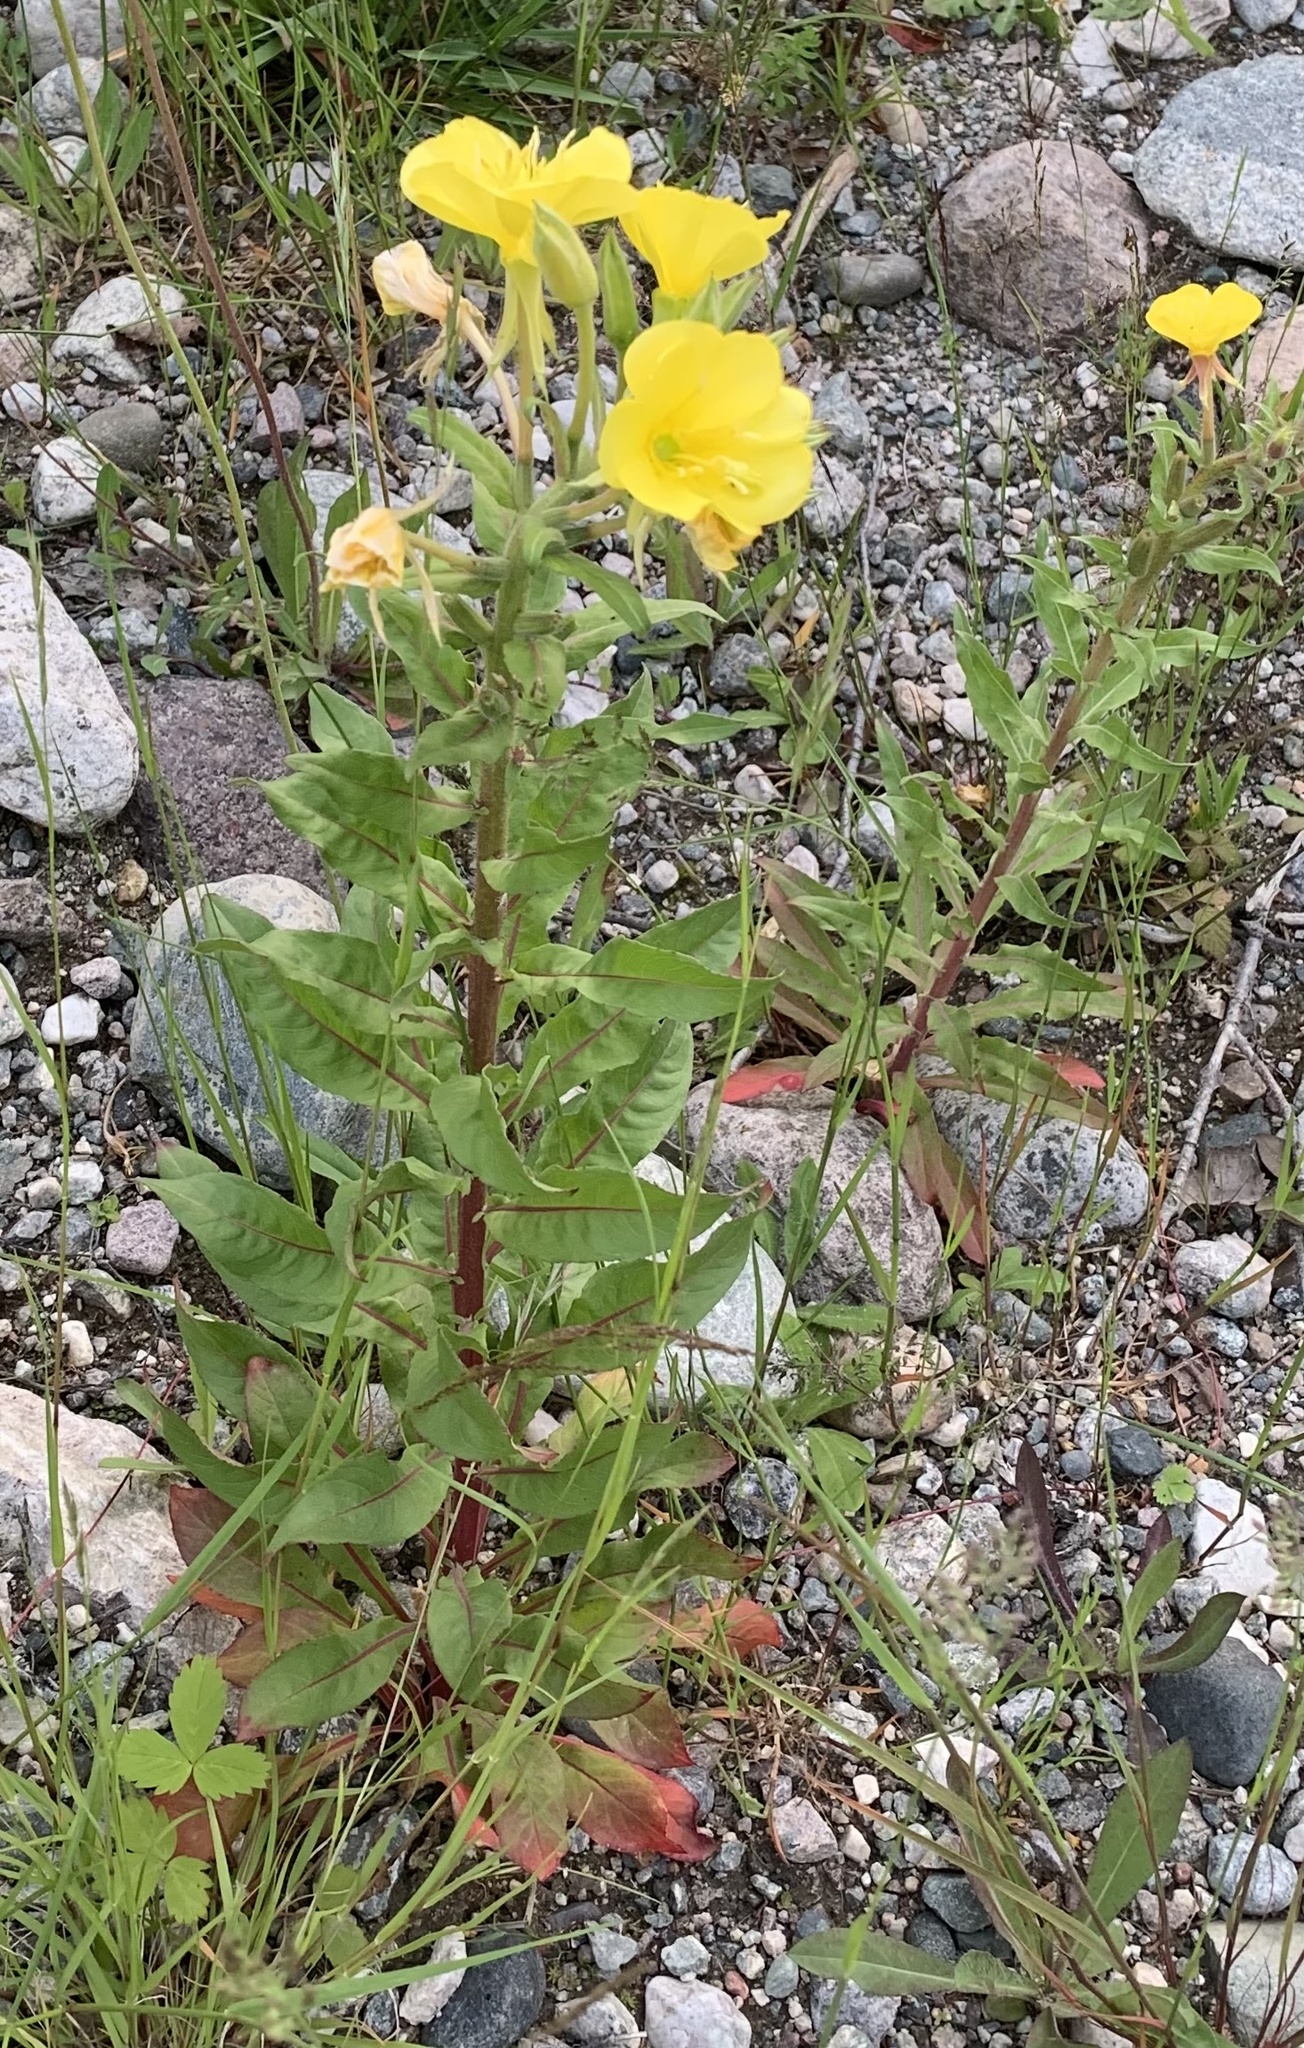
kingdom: Plantae
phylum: Tracheophyta
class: Magnoliopsida
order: Myrtales
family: Onagraceae
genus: Oenothera
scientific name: Oenothera biennis
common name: Common evening-primrose
